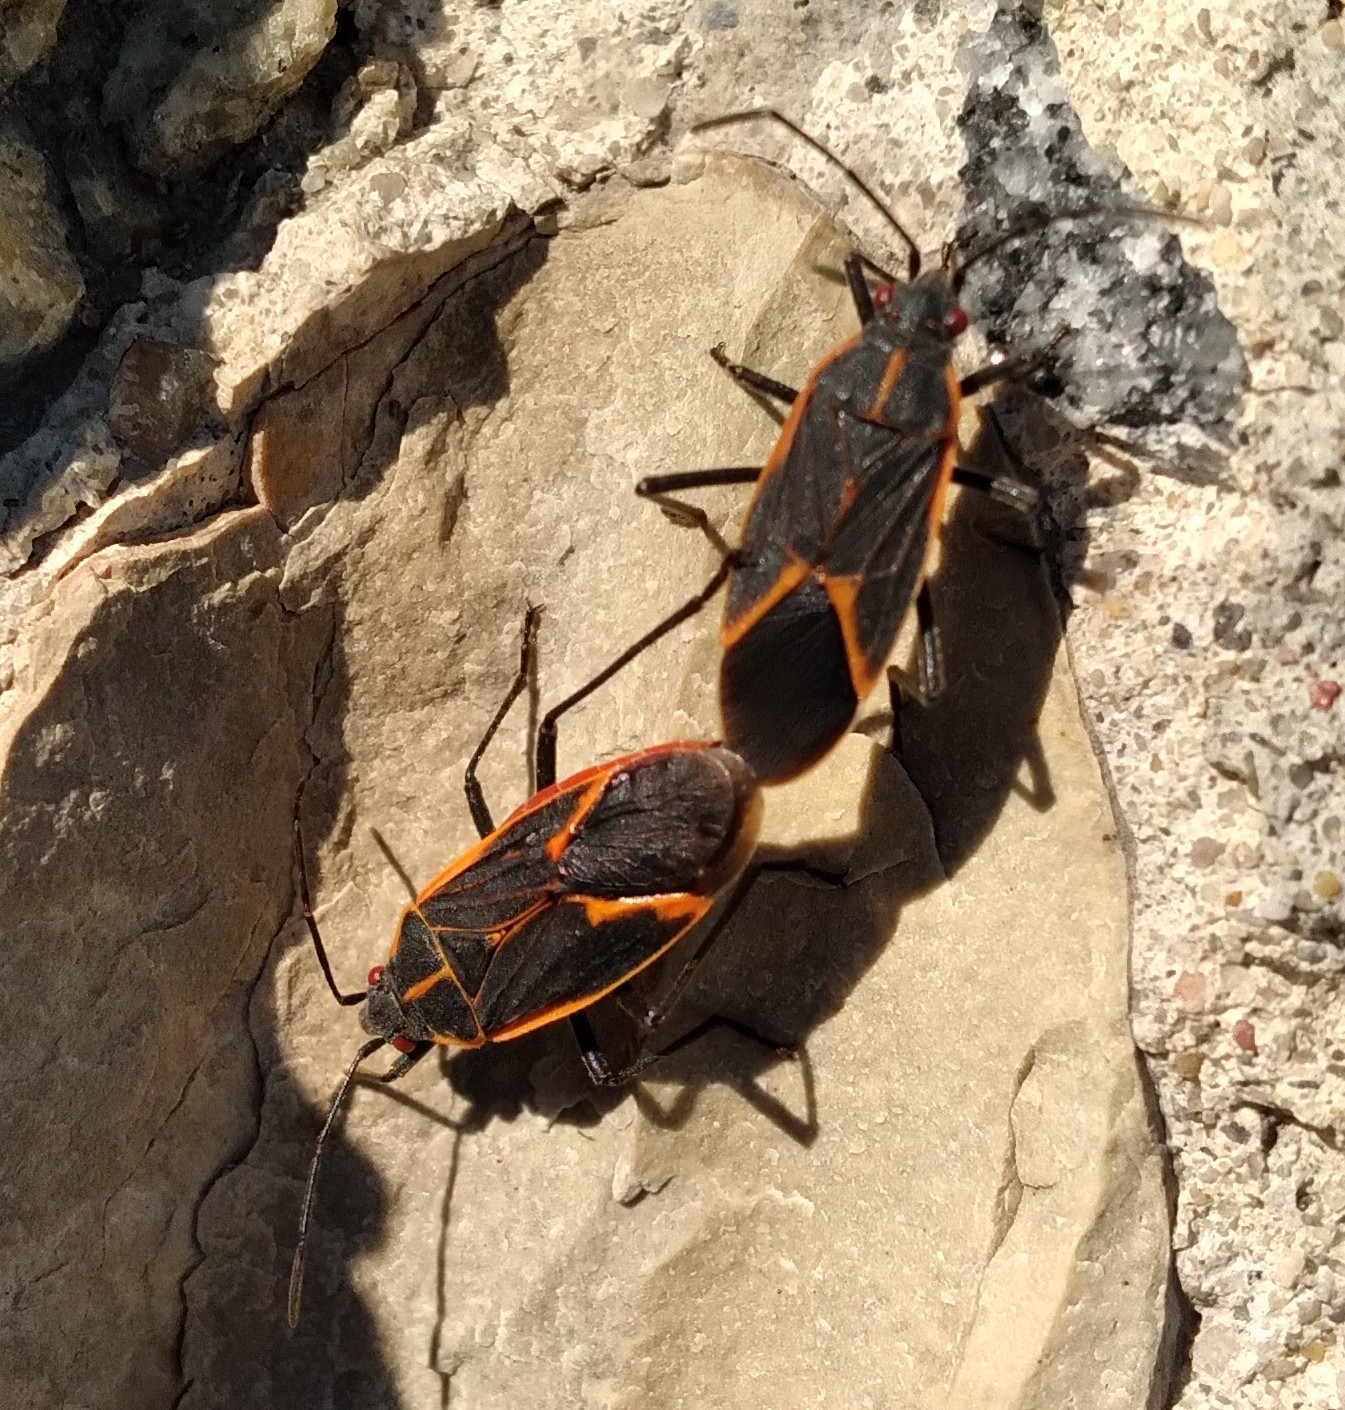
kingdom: Animalia
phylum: Arthropoda
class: Insecta
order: Hemiptera
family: Rhopalidae
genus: Boisea
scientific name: Boisea trivittata
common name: Boxelder bug
